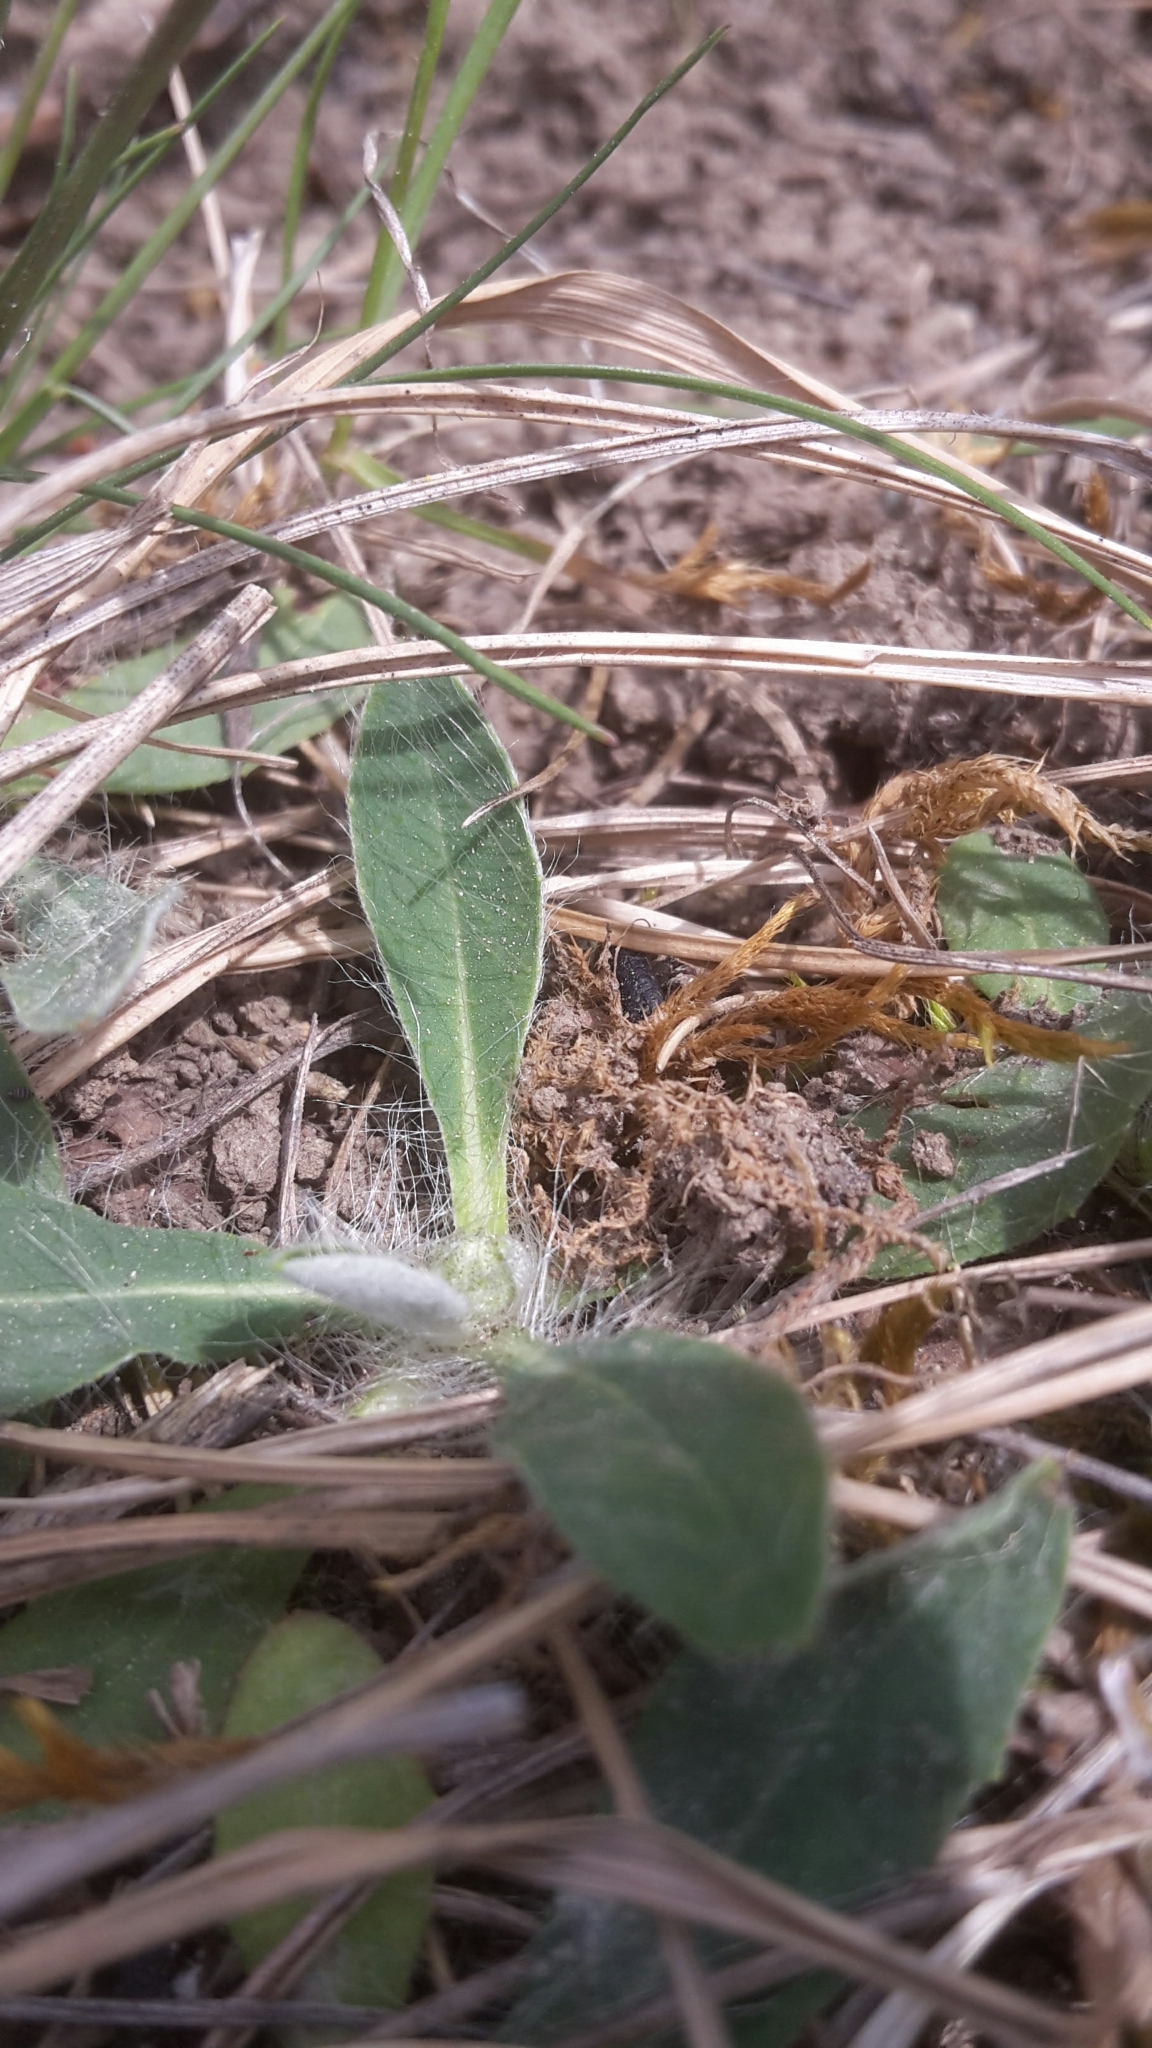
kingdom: Plantae
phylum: Tracheophyta
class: Magnoliopsida
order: Asterales
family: Asteraceae
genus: Pilosella
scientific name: Pilosella officinarum
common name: Mouse-ear hawkweed
